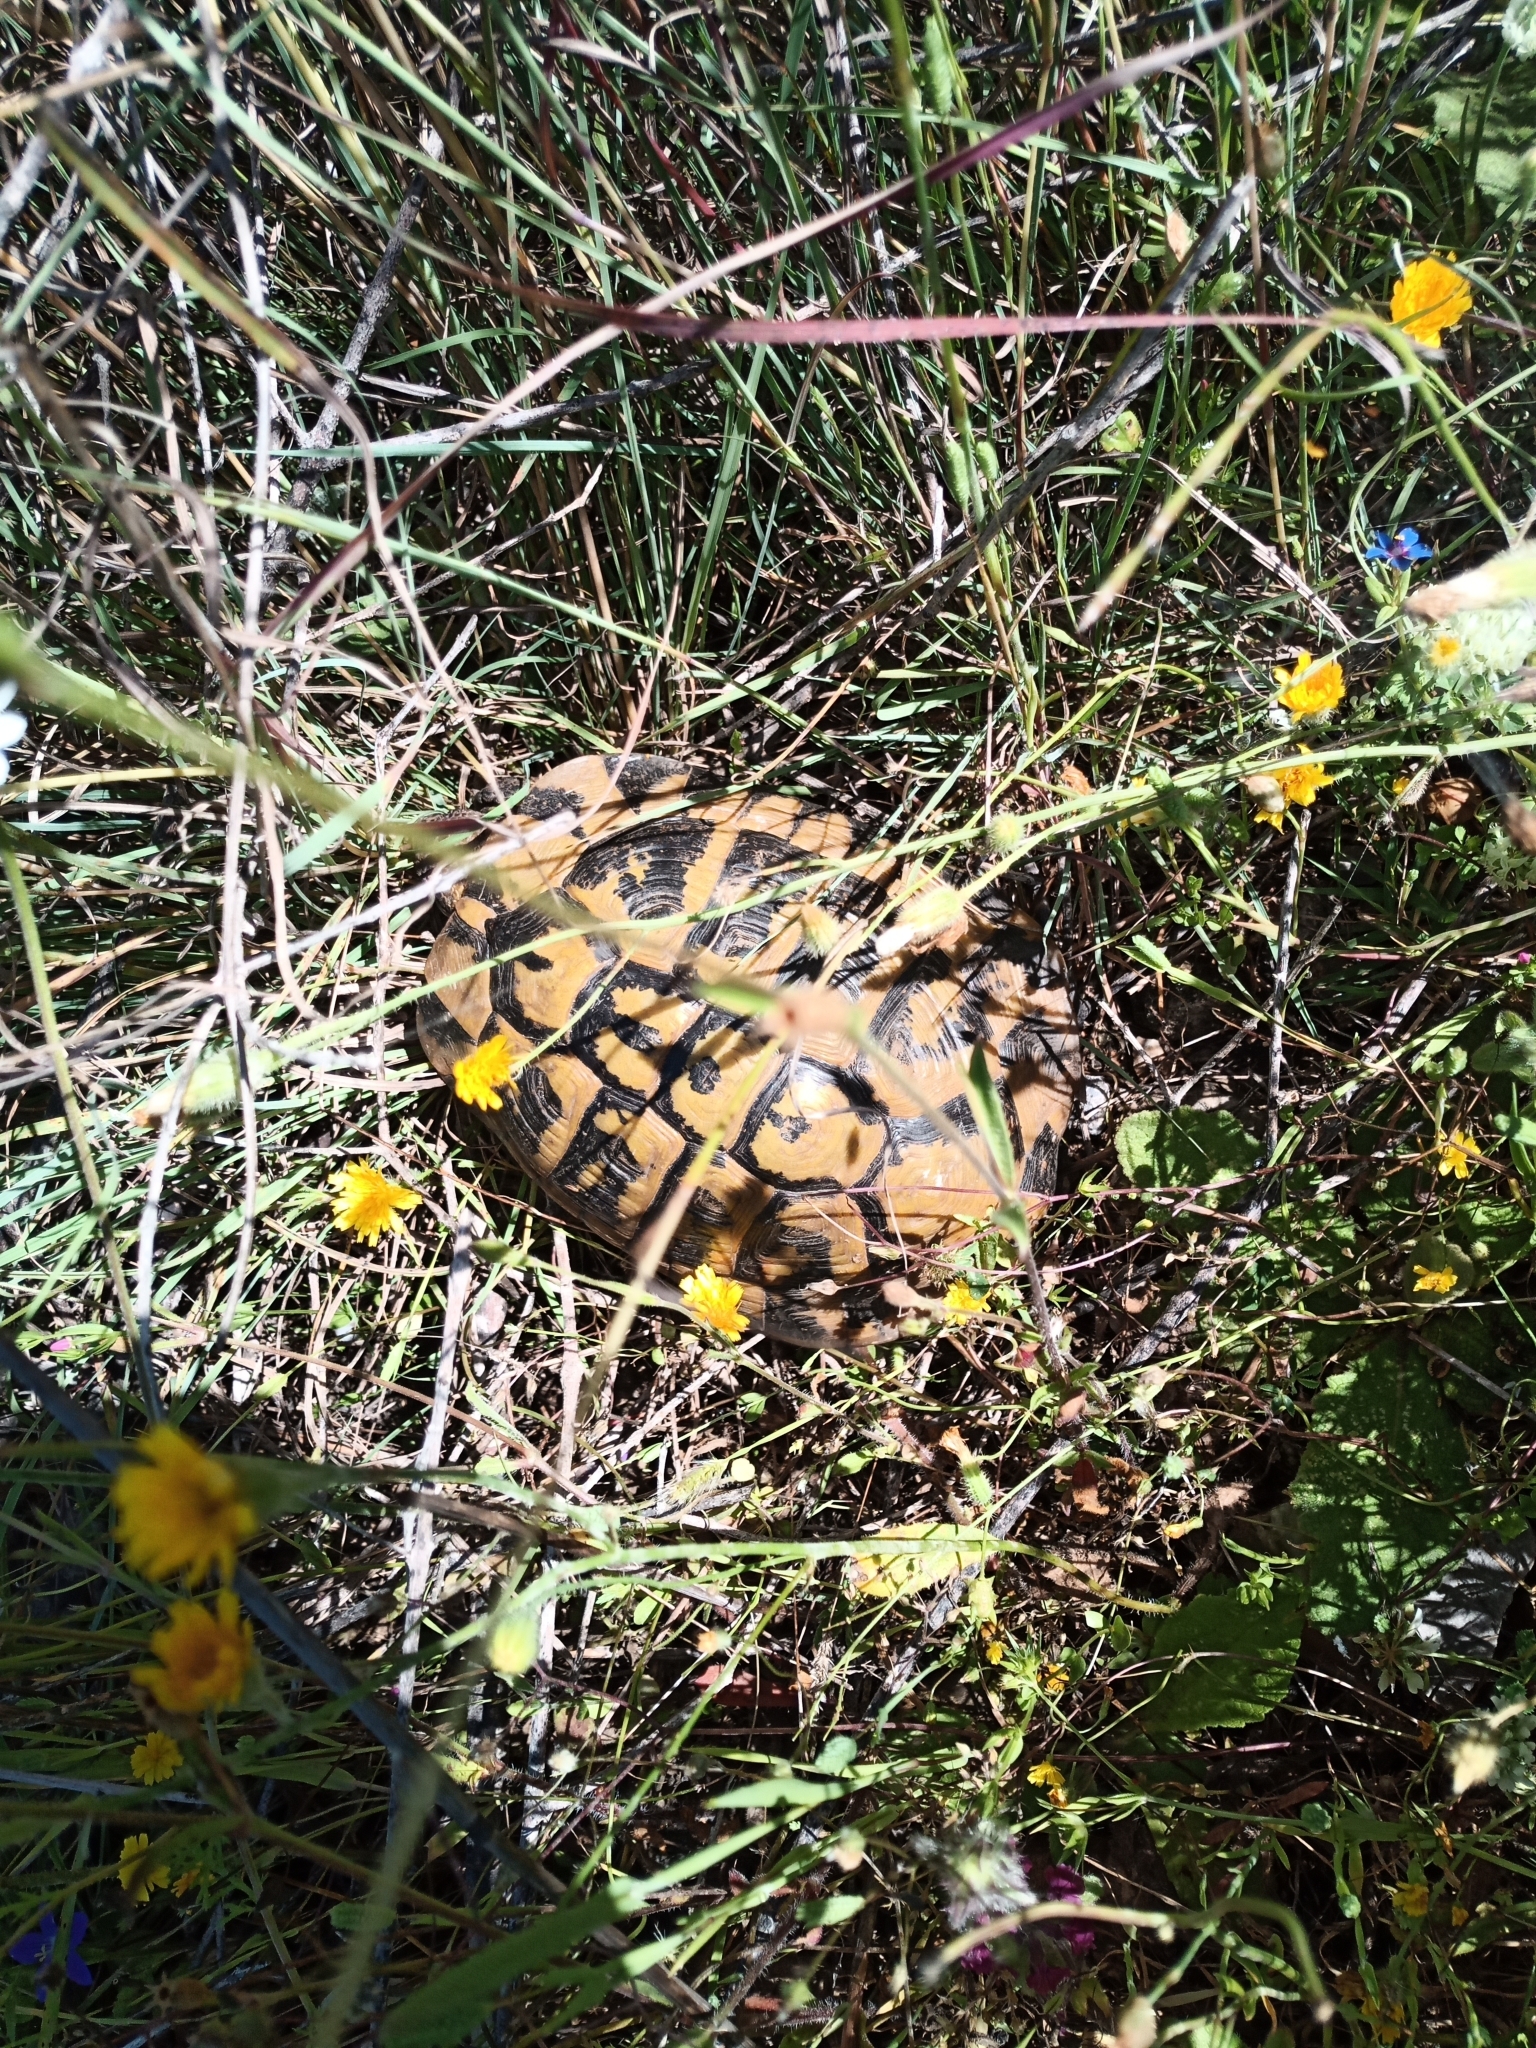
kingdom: Animalia
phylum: Chordata
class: Testudines
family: Testudinidae
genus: Testudo
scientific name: Testudo hermanni
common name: Hermann's tortoise
